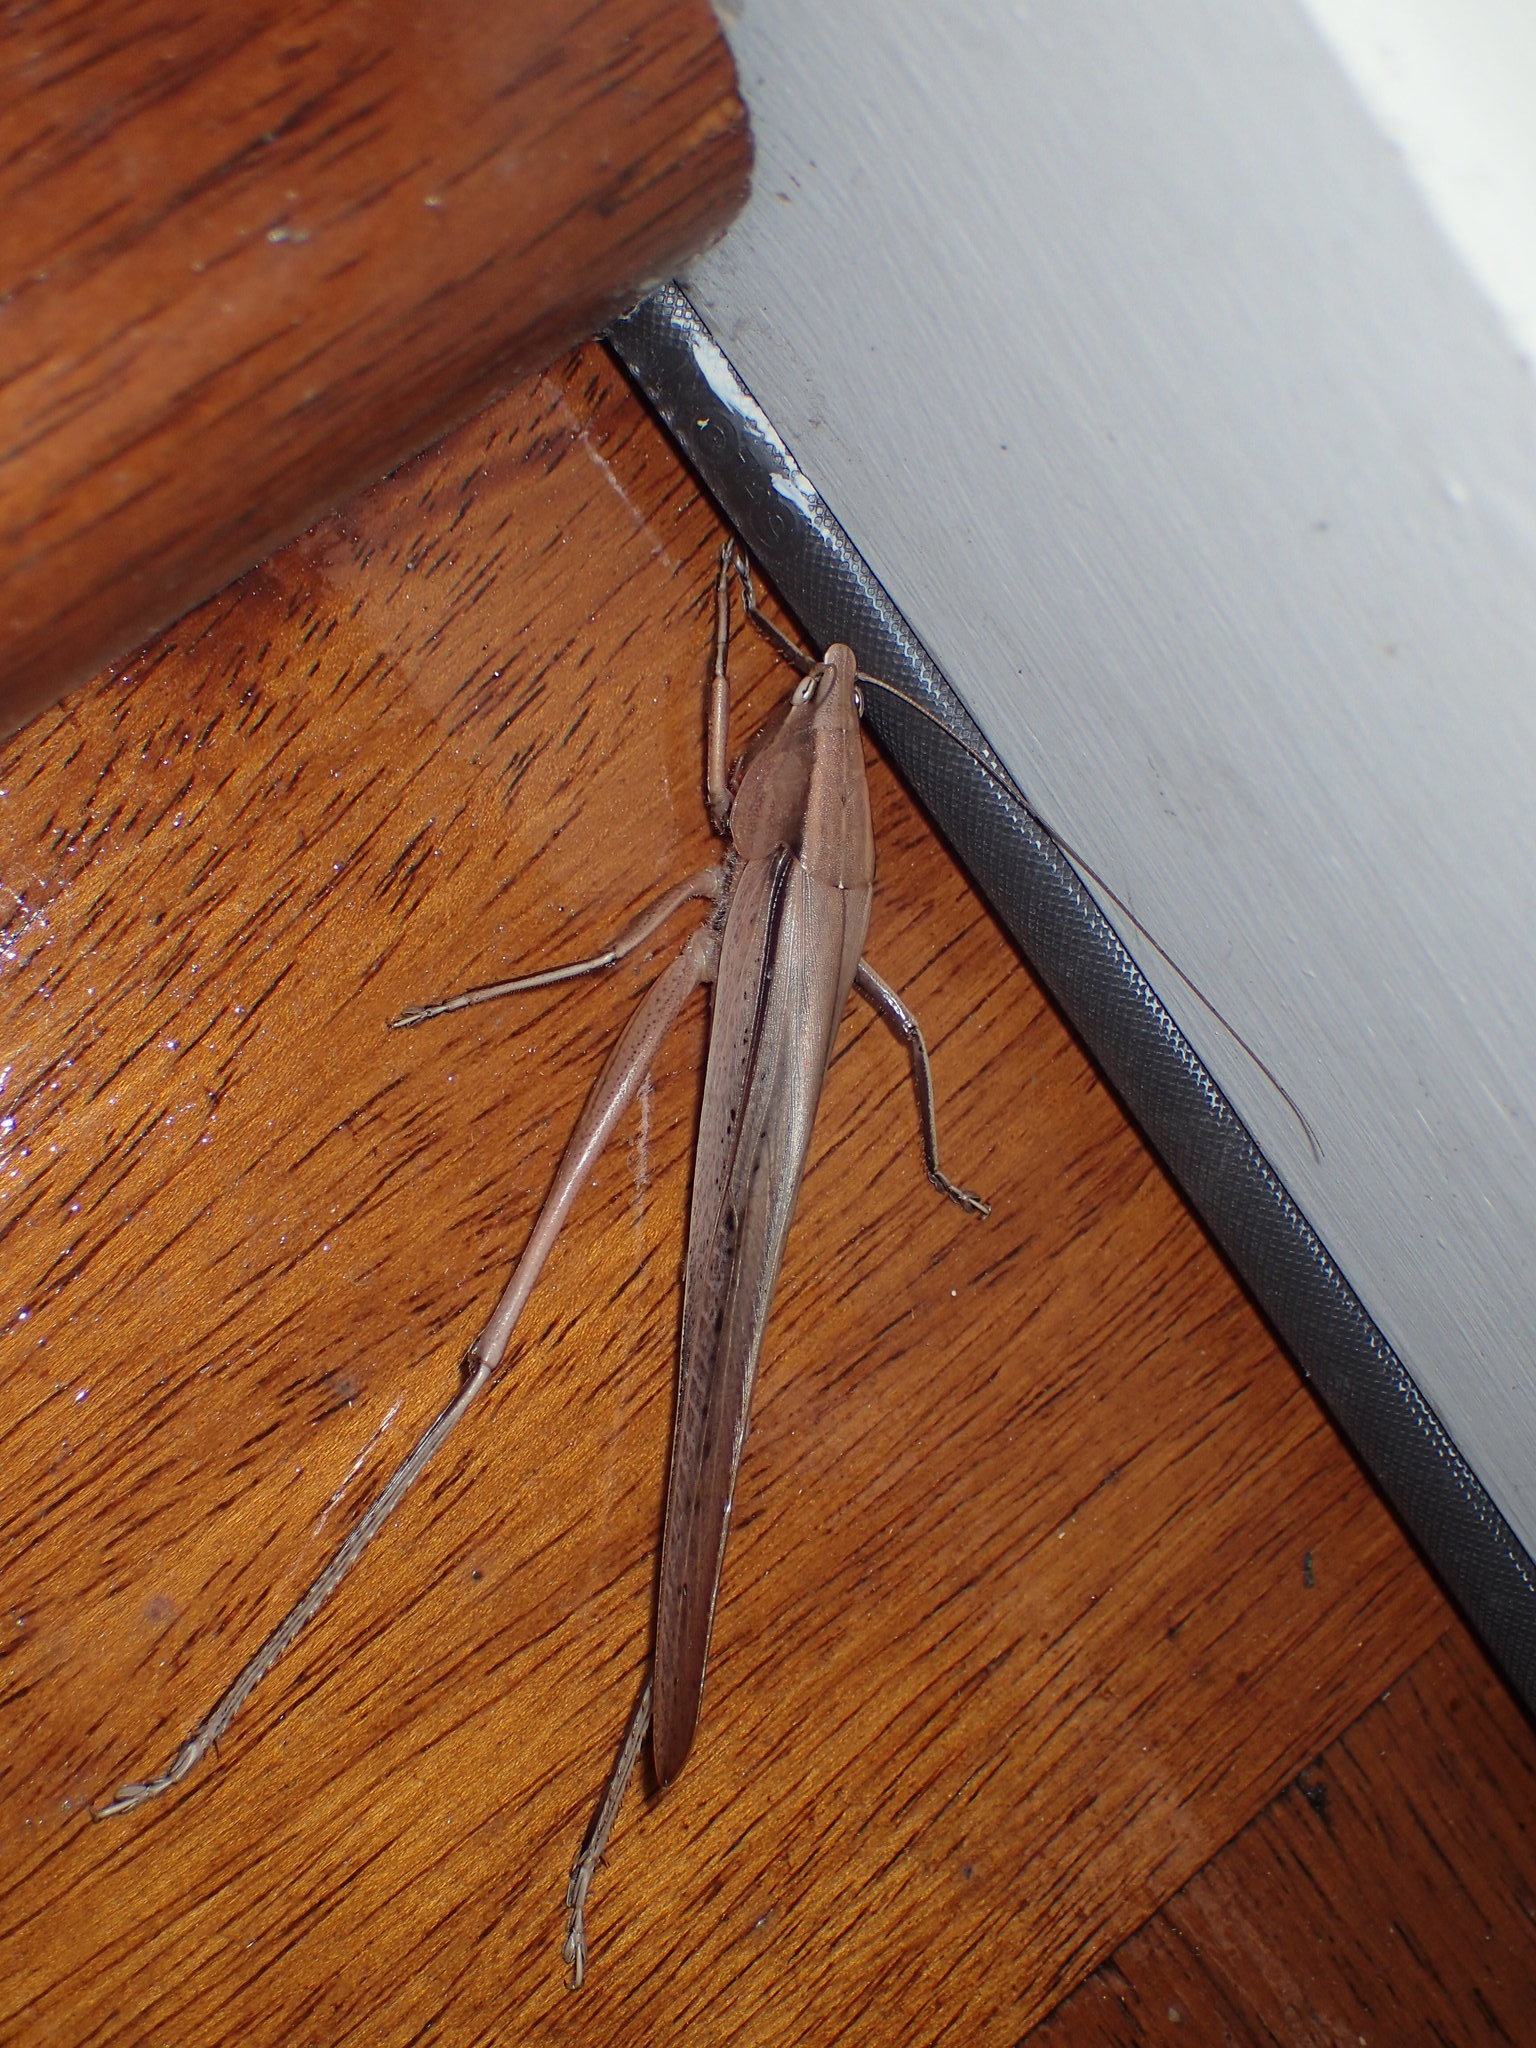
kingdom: Animalia
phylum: Arthropoda
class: Insecta
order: Orthoptera
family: Tettigoniidae
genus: Neoconocephalus
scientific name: Neoconocephalus triops
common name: Broad-tipped conehead
